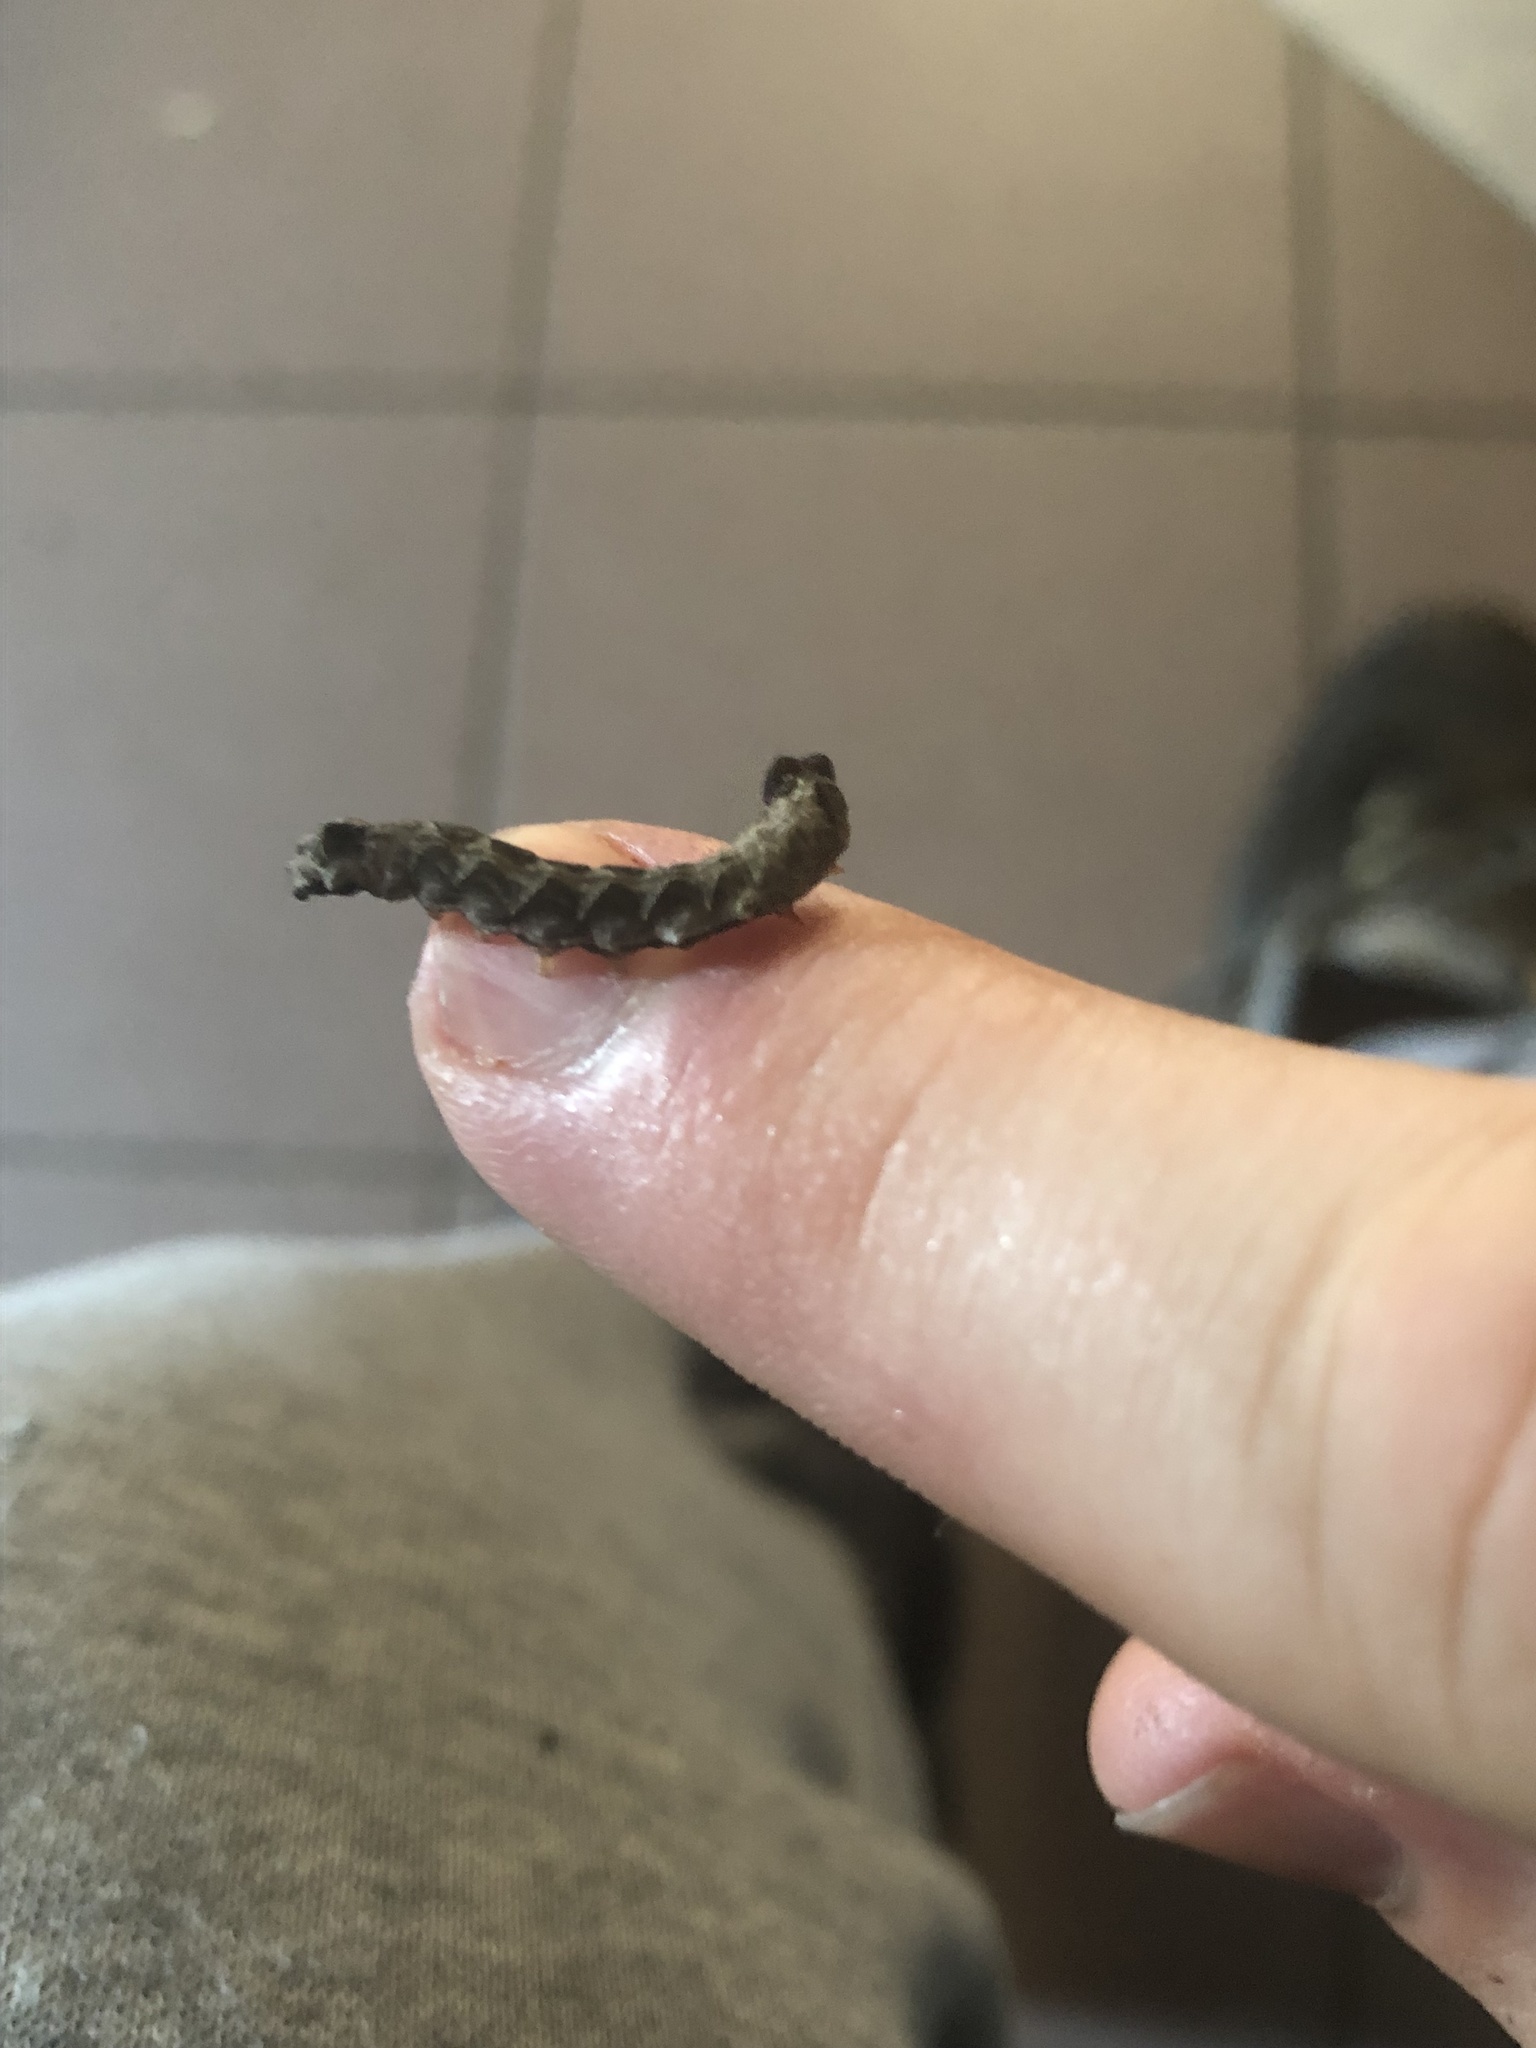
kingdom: Animalia
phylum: Arthropoda
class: Insecta
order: Lepidoptera
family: Drepanidae
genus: Thyatira
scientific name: Thyatira batis
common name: Peach blossom
